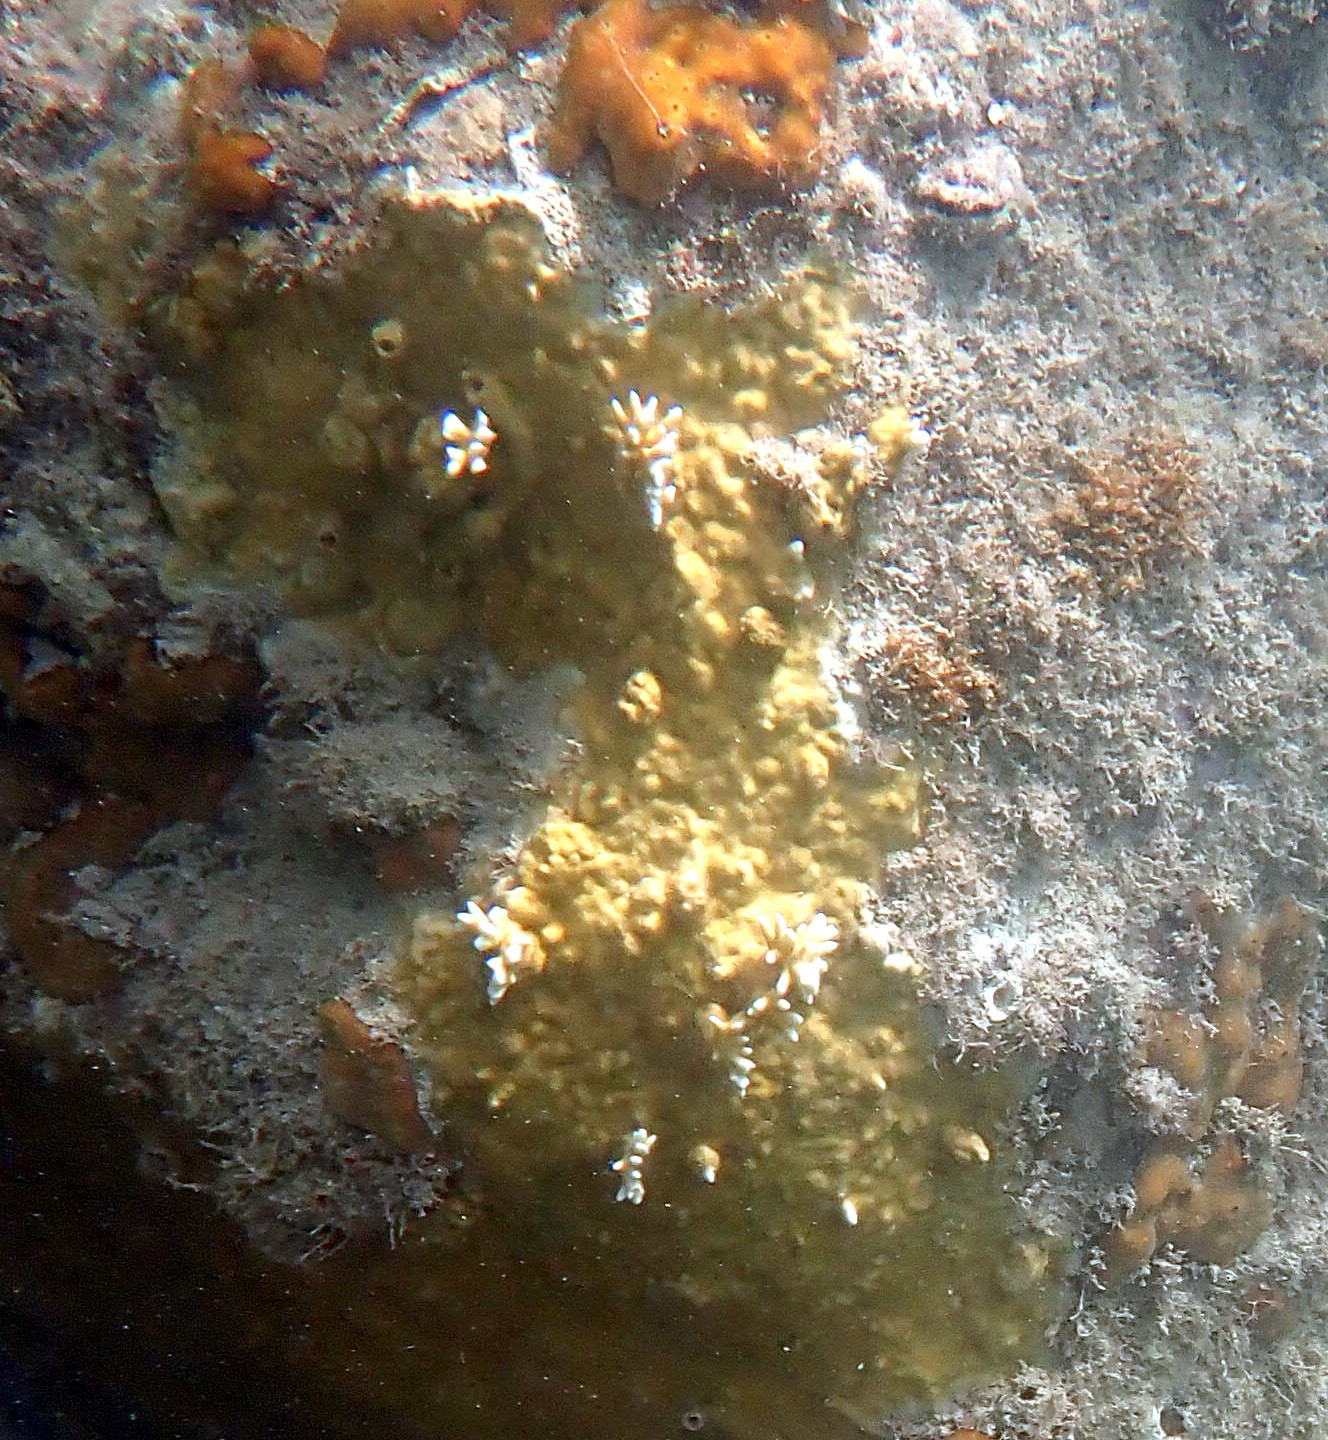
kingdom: Animalia
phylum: Cnidaria
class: Hydrozoa
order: Anthoathecata
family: Milleporidae
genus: Millepora
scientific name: Millepora alcicornis
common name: Branching fire coral
